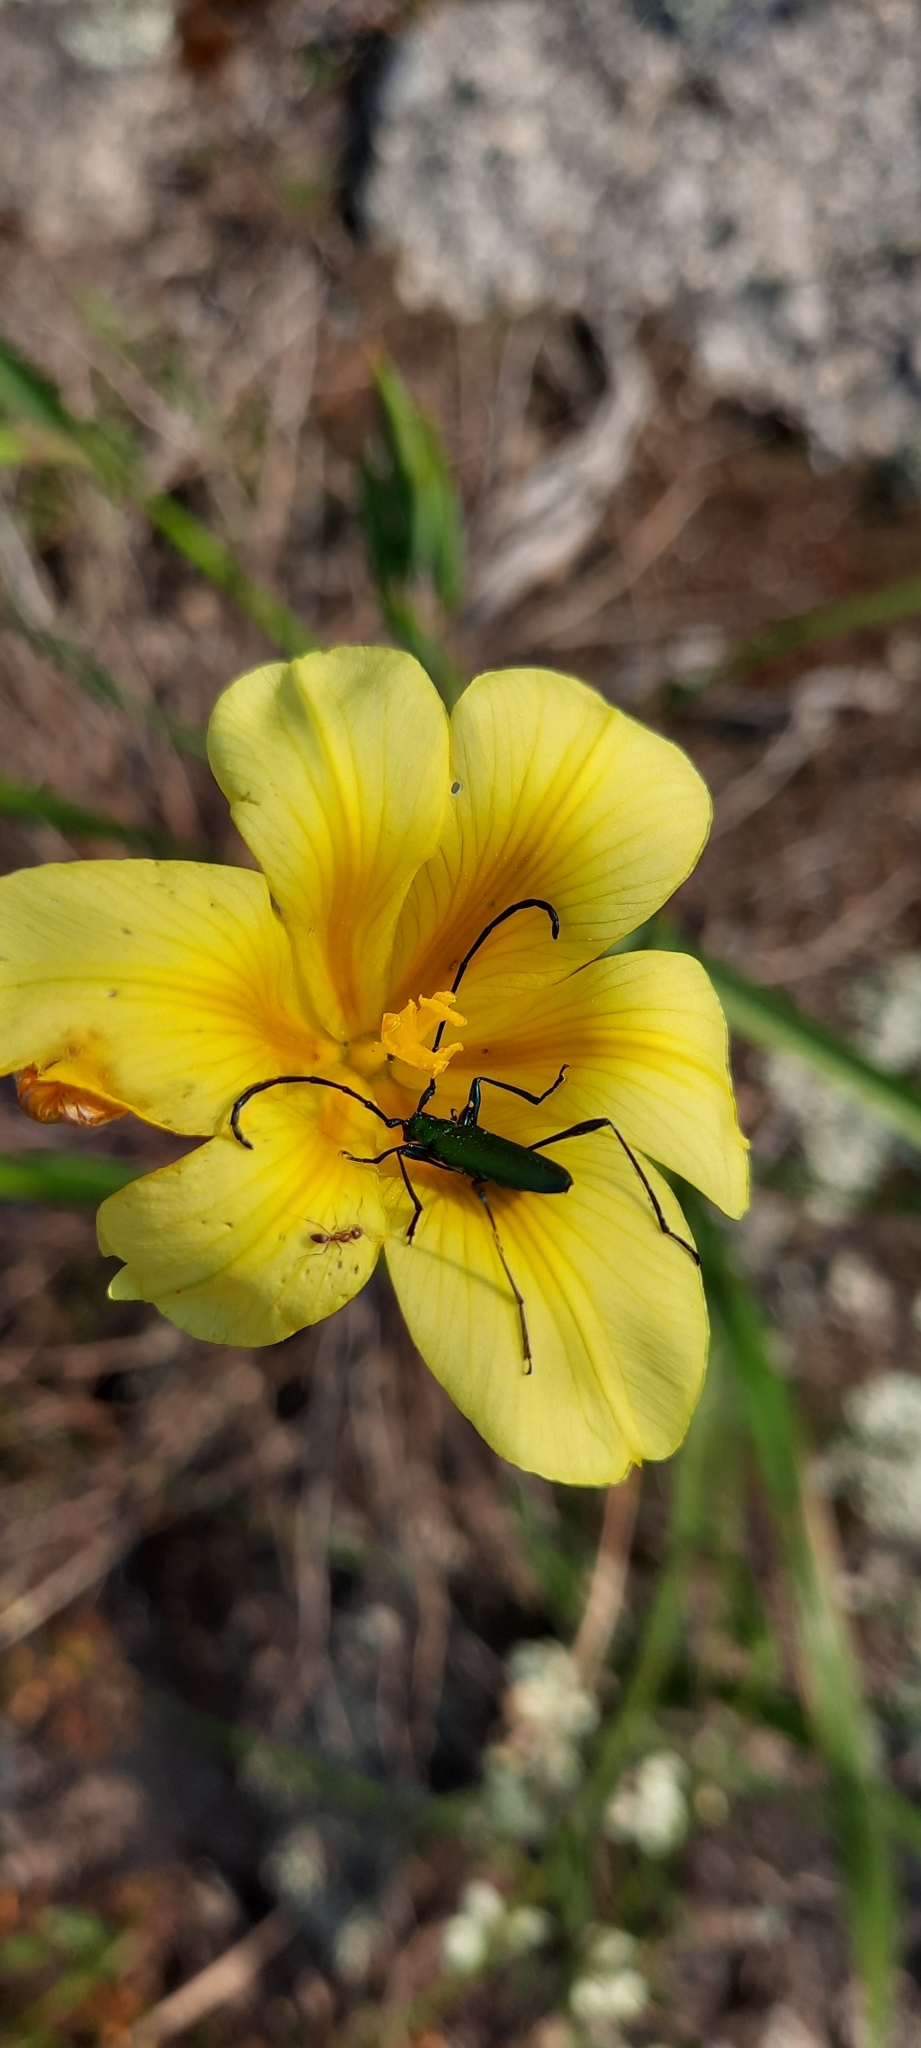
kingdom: Plantae
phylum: Tracheophyta
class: Liliopsida
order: Asparagales
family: Iridaceae
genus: Moraea
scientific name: Moraea ochroleuca
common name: Red tulp
